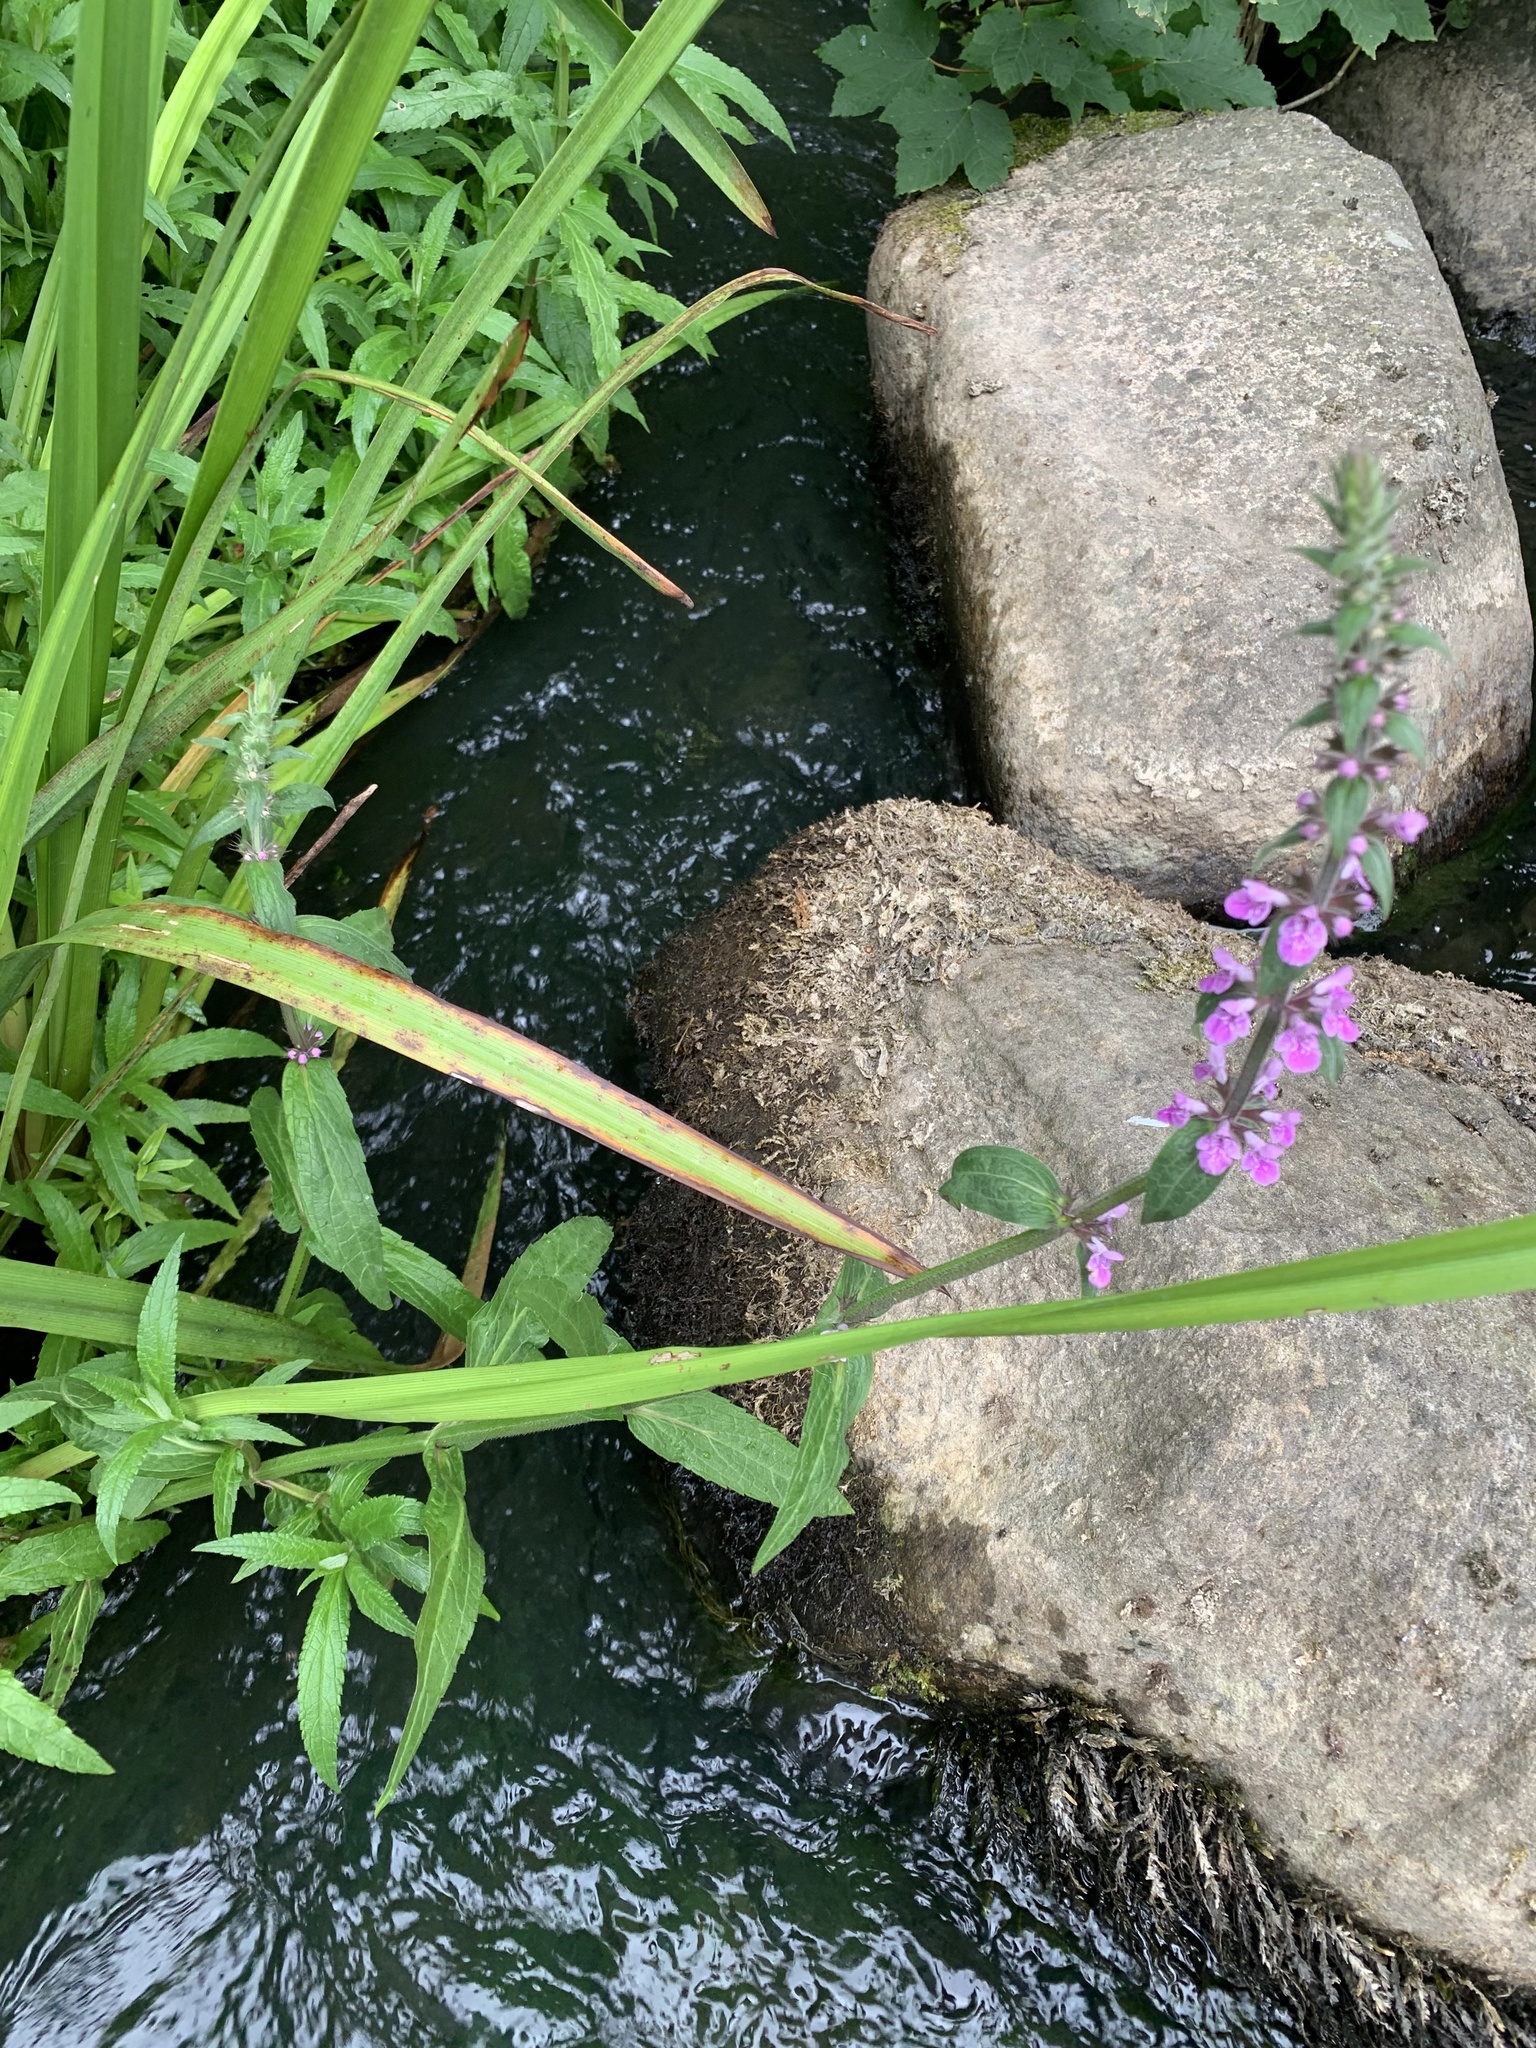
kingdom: Plantae
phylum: Tracheophyta
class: Magnoliopsida
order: Lamiales
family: Lamiaceae
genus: Stachys
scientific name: Stachys palustris
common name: Marsh woundwort
